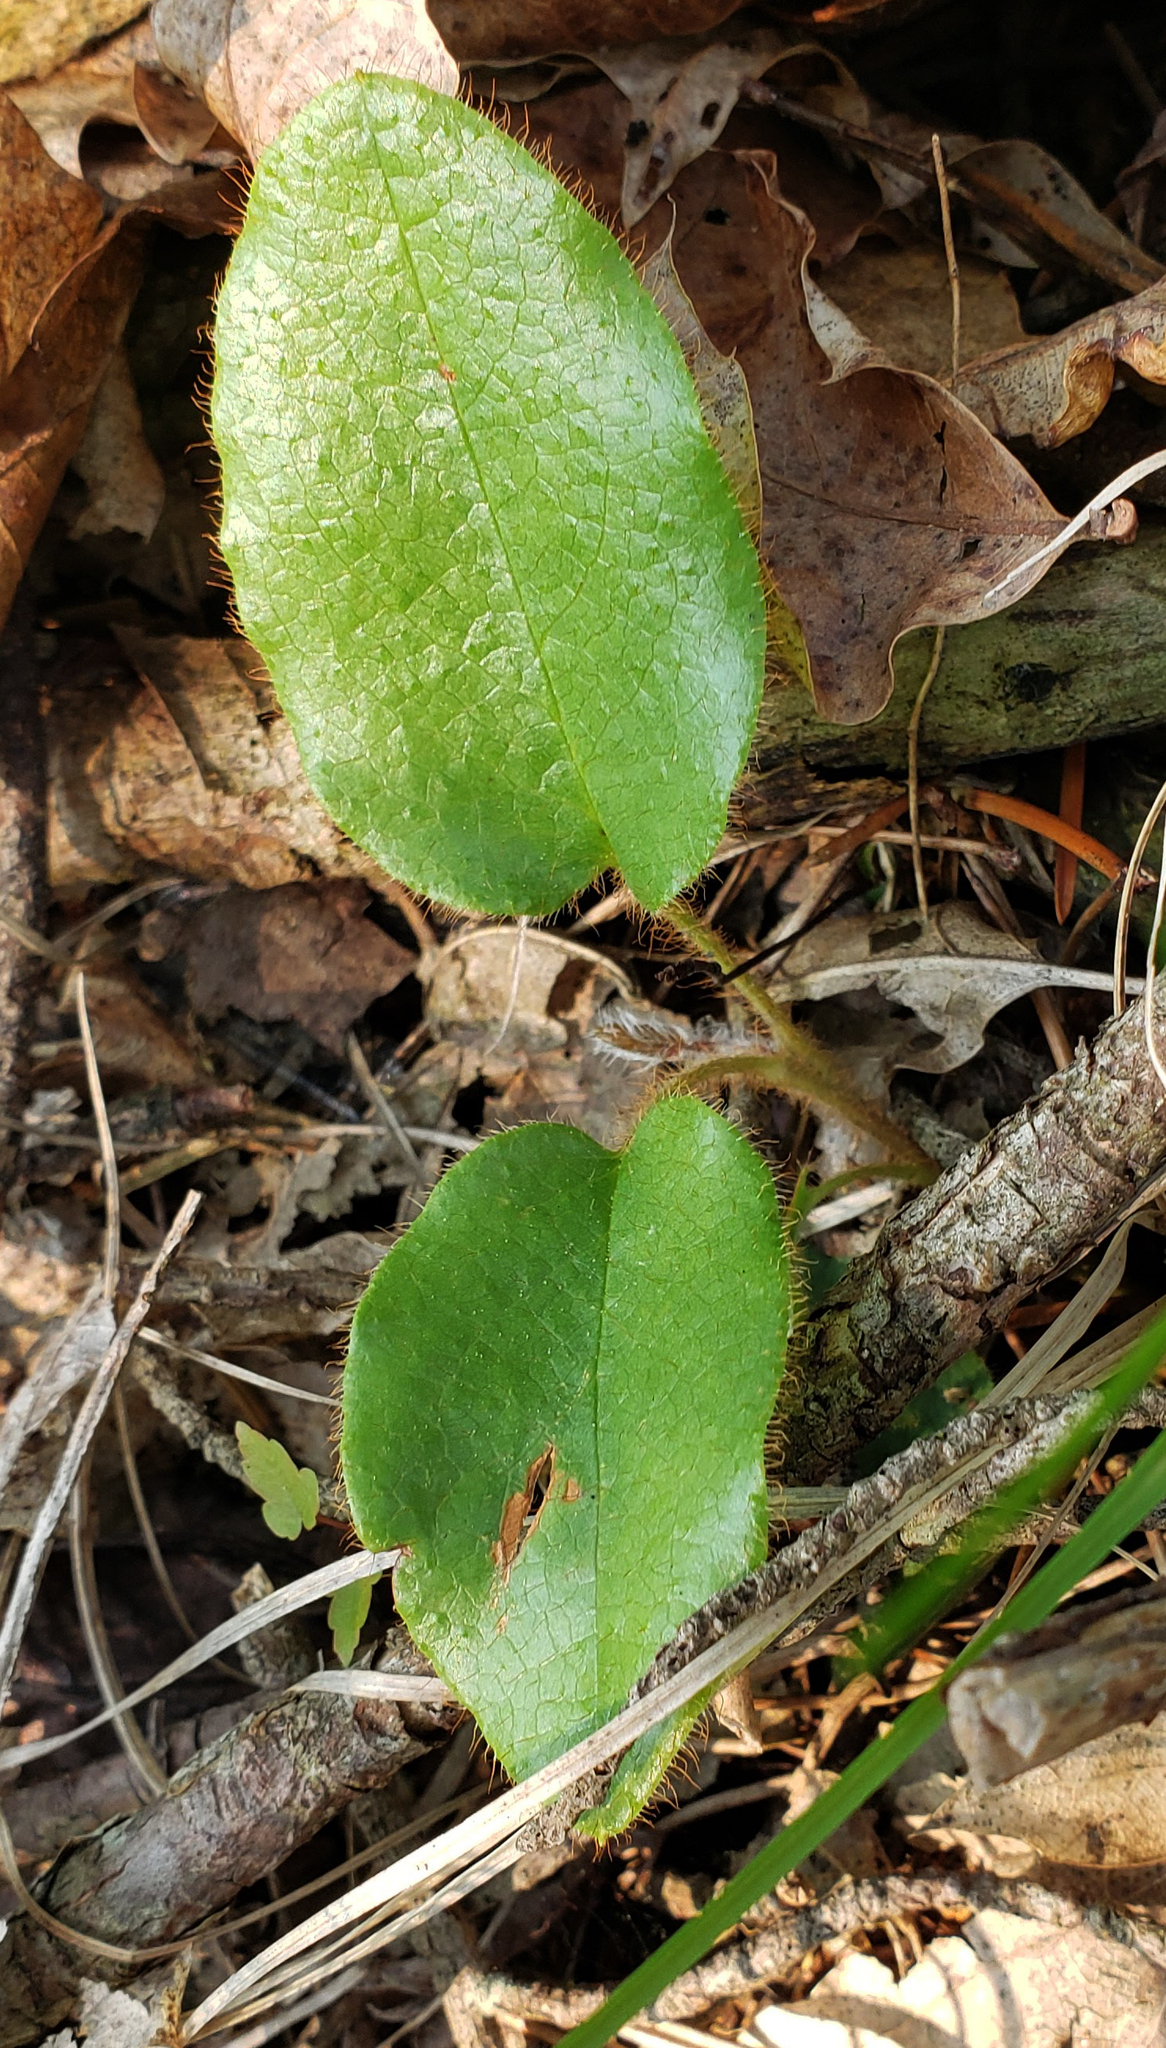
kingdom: Plantae
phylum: Tracheophyta
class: Magnoliopsida
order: Ericales
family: Ericaceae
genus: Epigaea
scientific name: Epigaea repens
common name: Gravelroot
